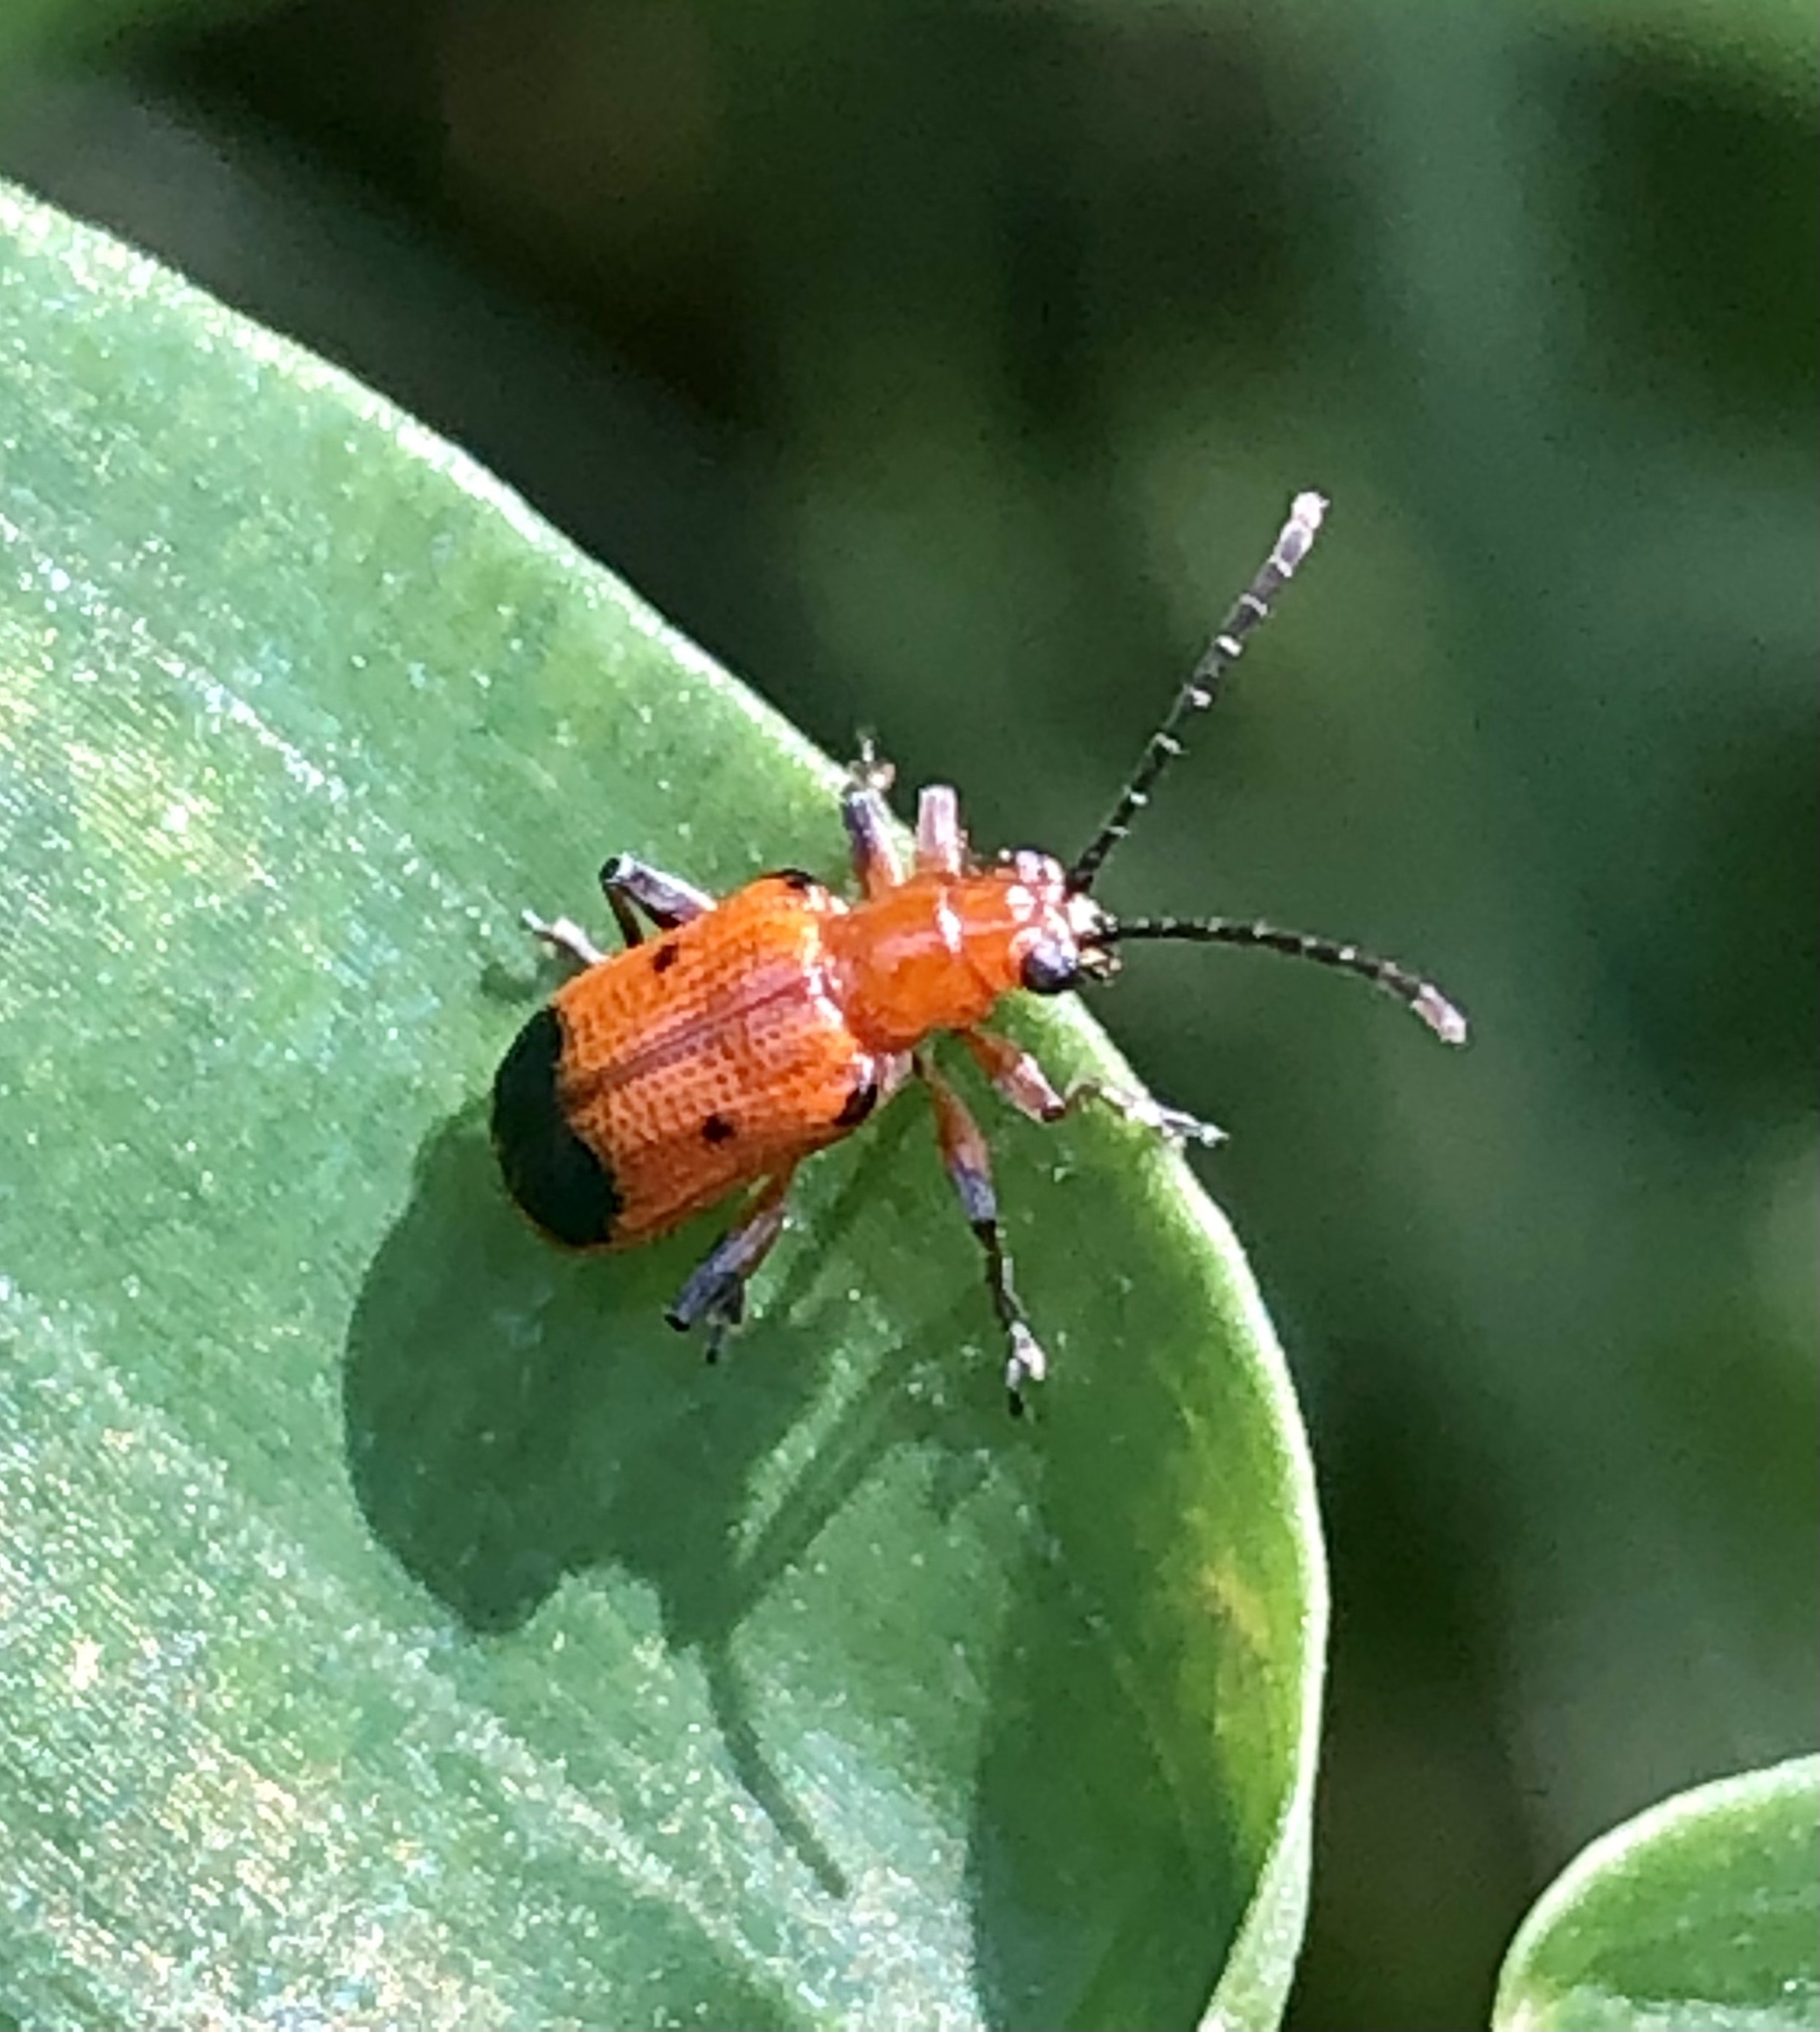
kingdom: Animalia
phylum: Arthropoda
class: Insecta
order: Coleoptera
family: Chrysomelidae
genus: Neolema
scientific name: Neolema dorsalis
